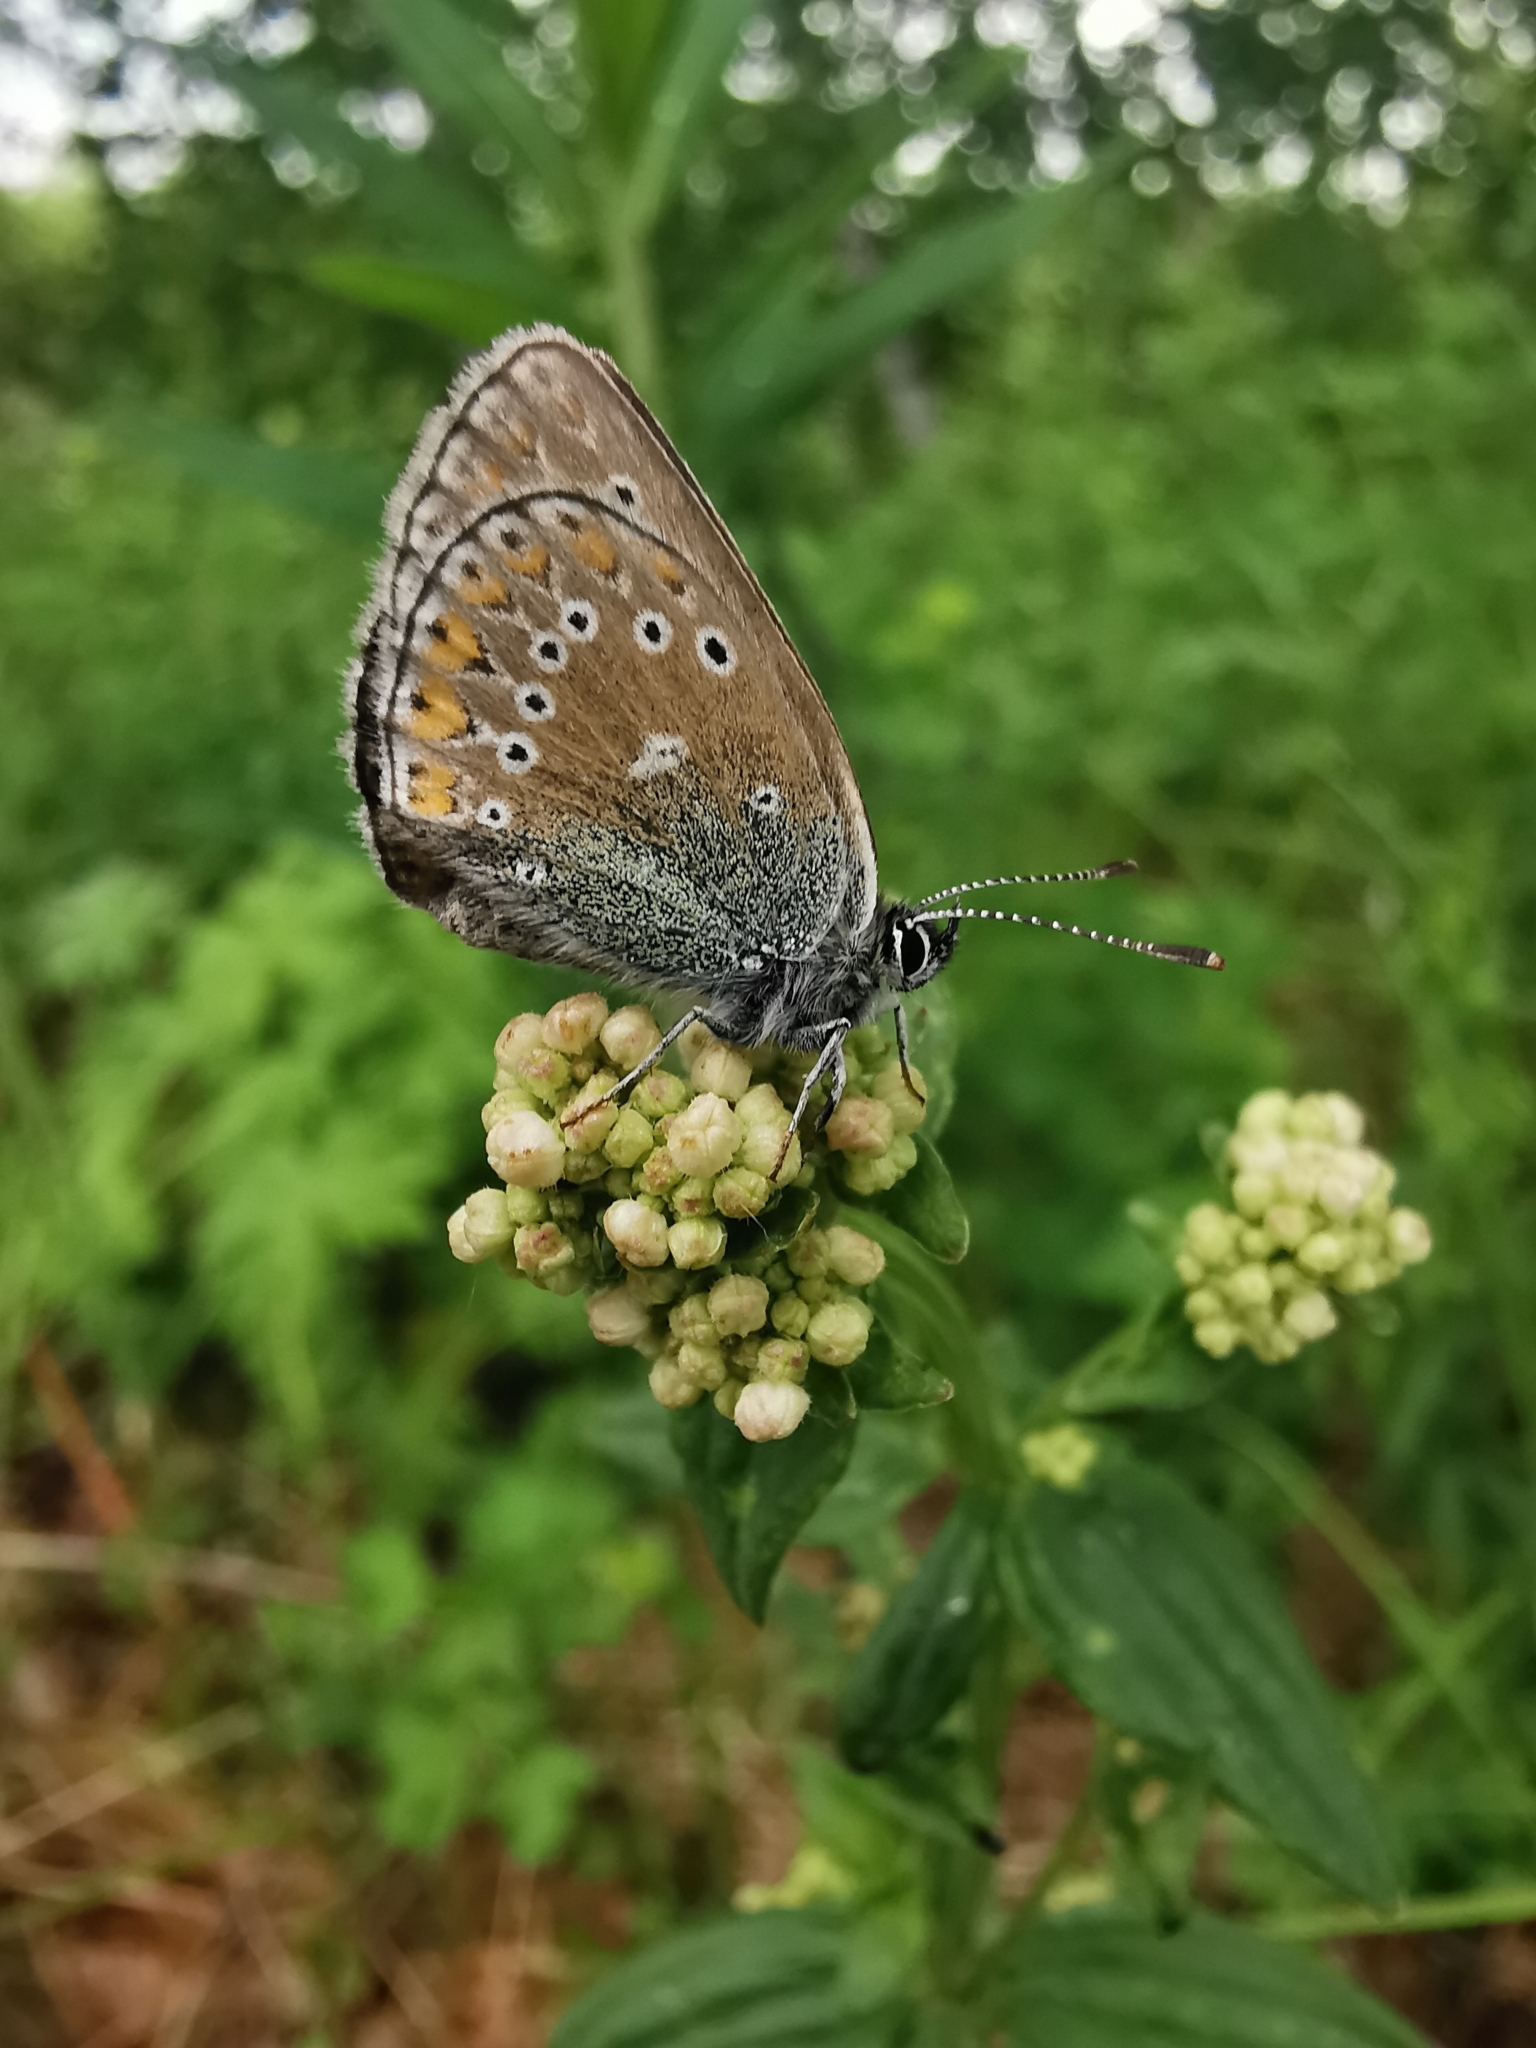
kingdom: Animalia
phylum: Arthropoda
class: Insecta
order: Lepidoptera
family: Lycaenidae
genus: Eumedonia
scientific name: Eumedonia eumedon
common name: Geranium argus
